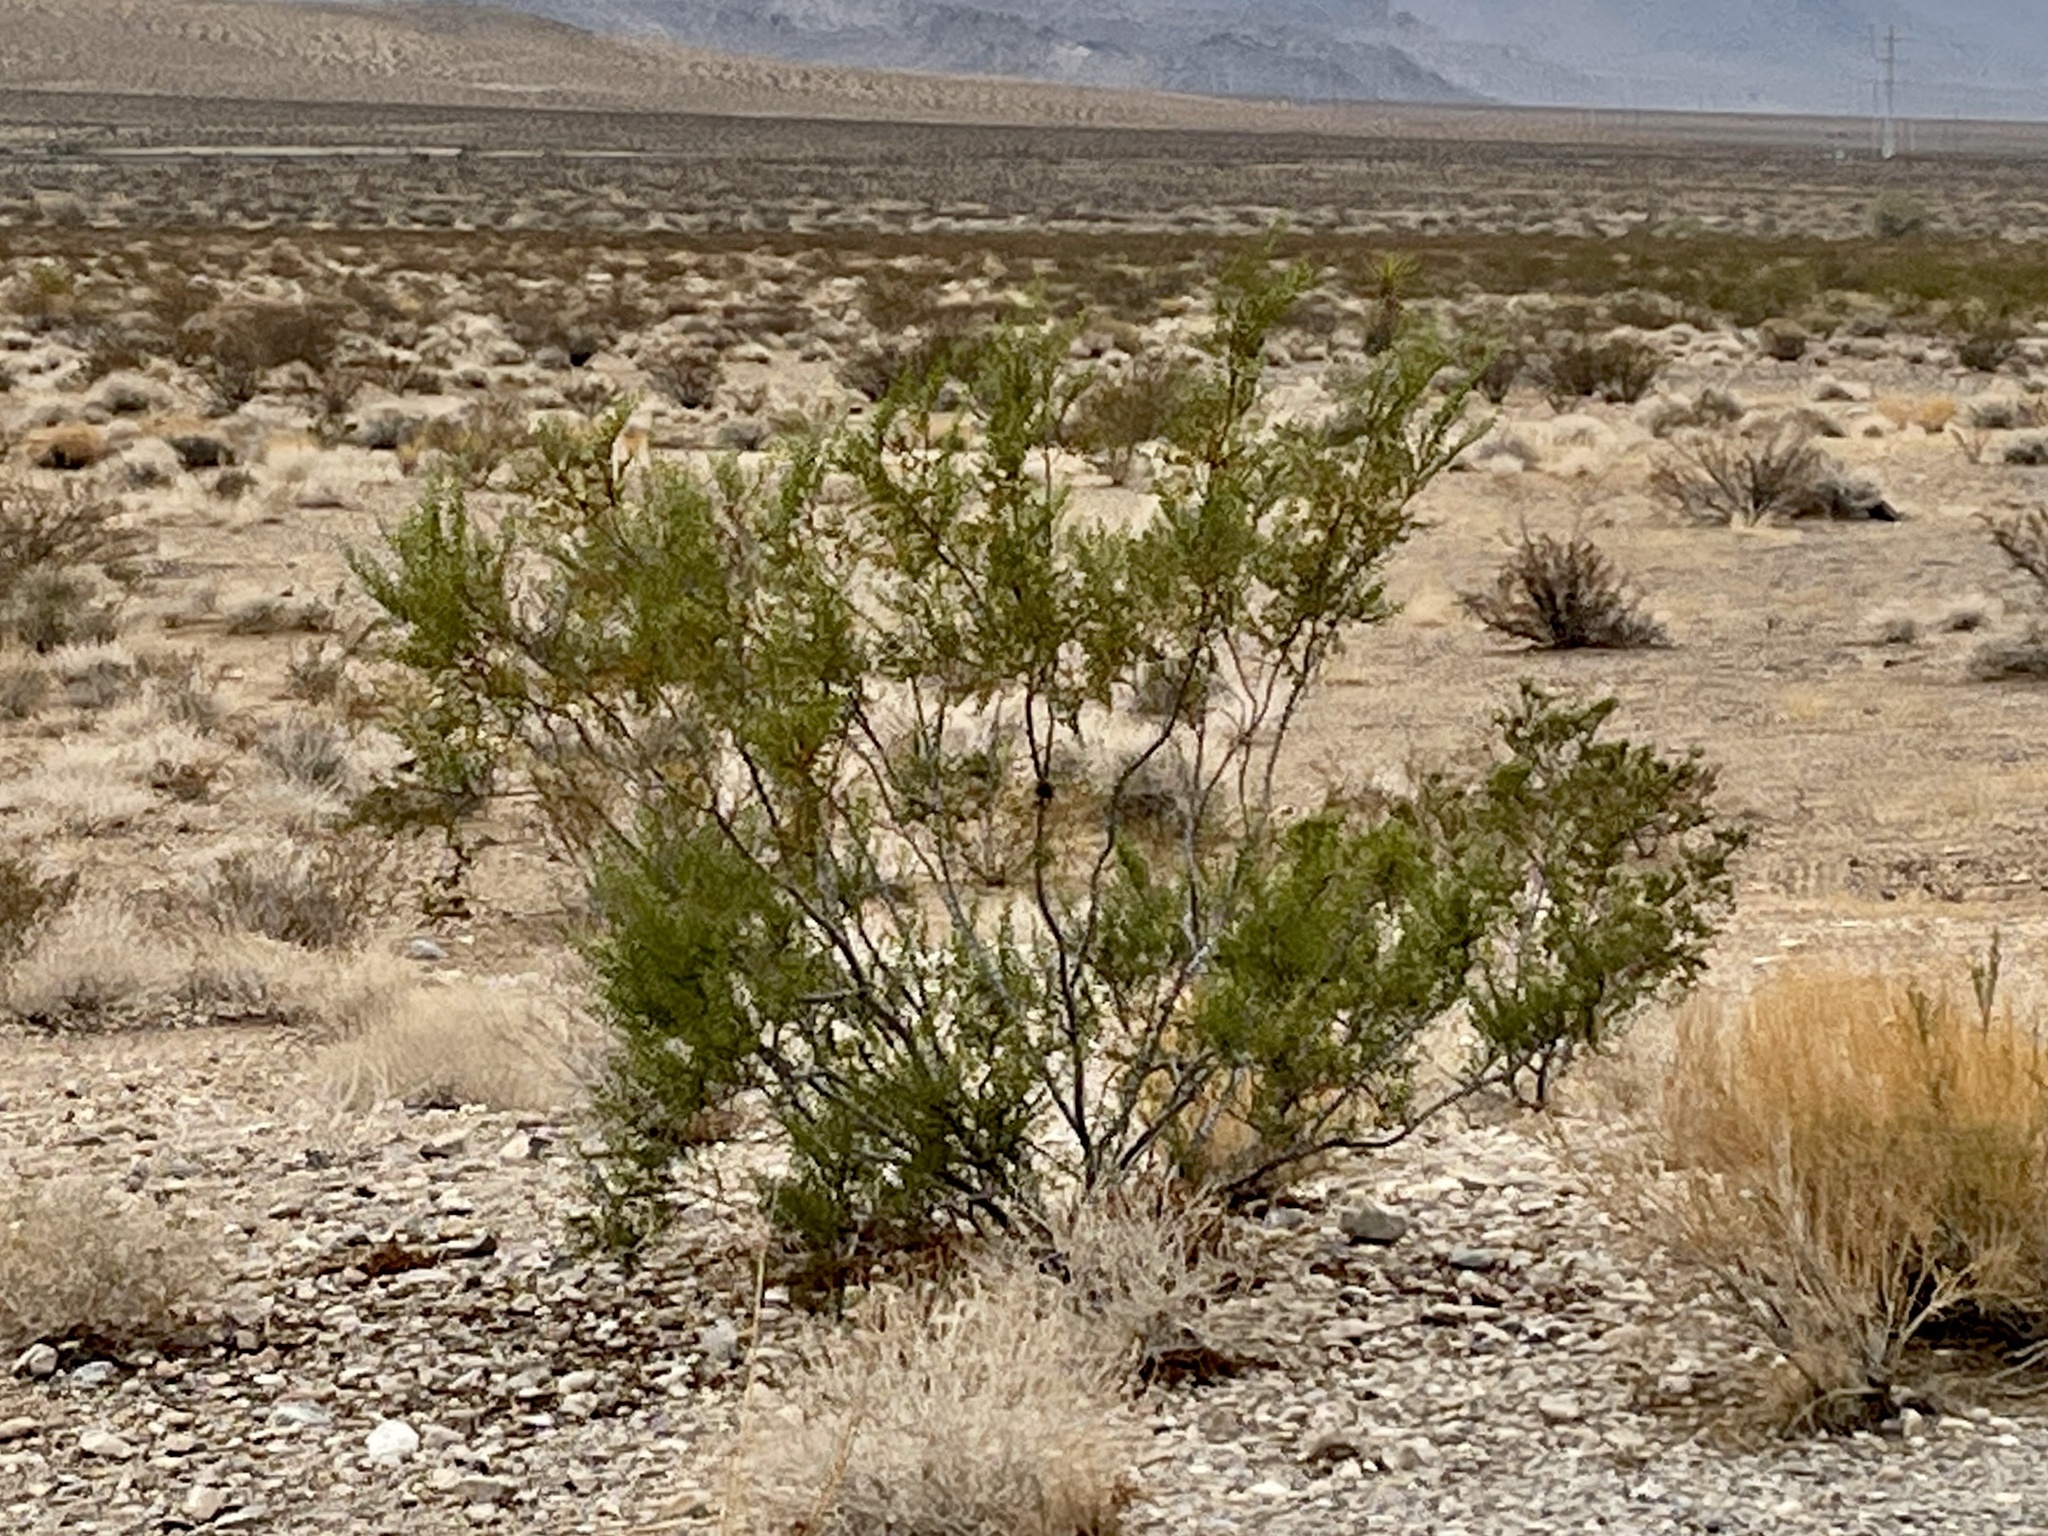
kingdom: Plantae
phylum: Tracheophyta
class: Magnoliopsida
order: Zygophyllales
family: Zygophyllaceae
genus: Larrea
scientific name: Larrea tridentata
